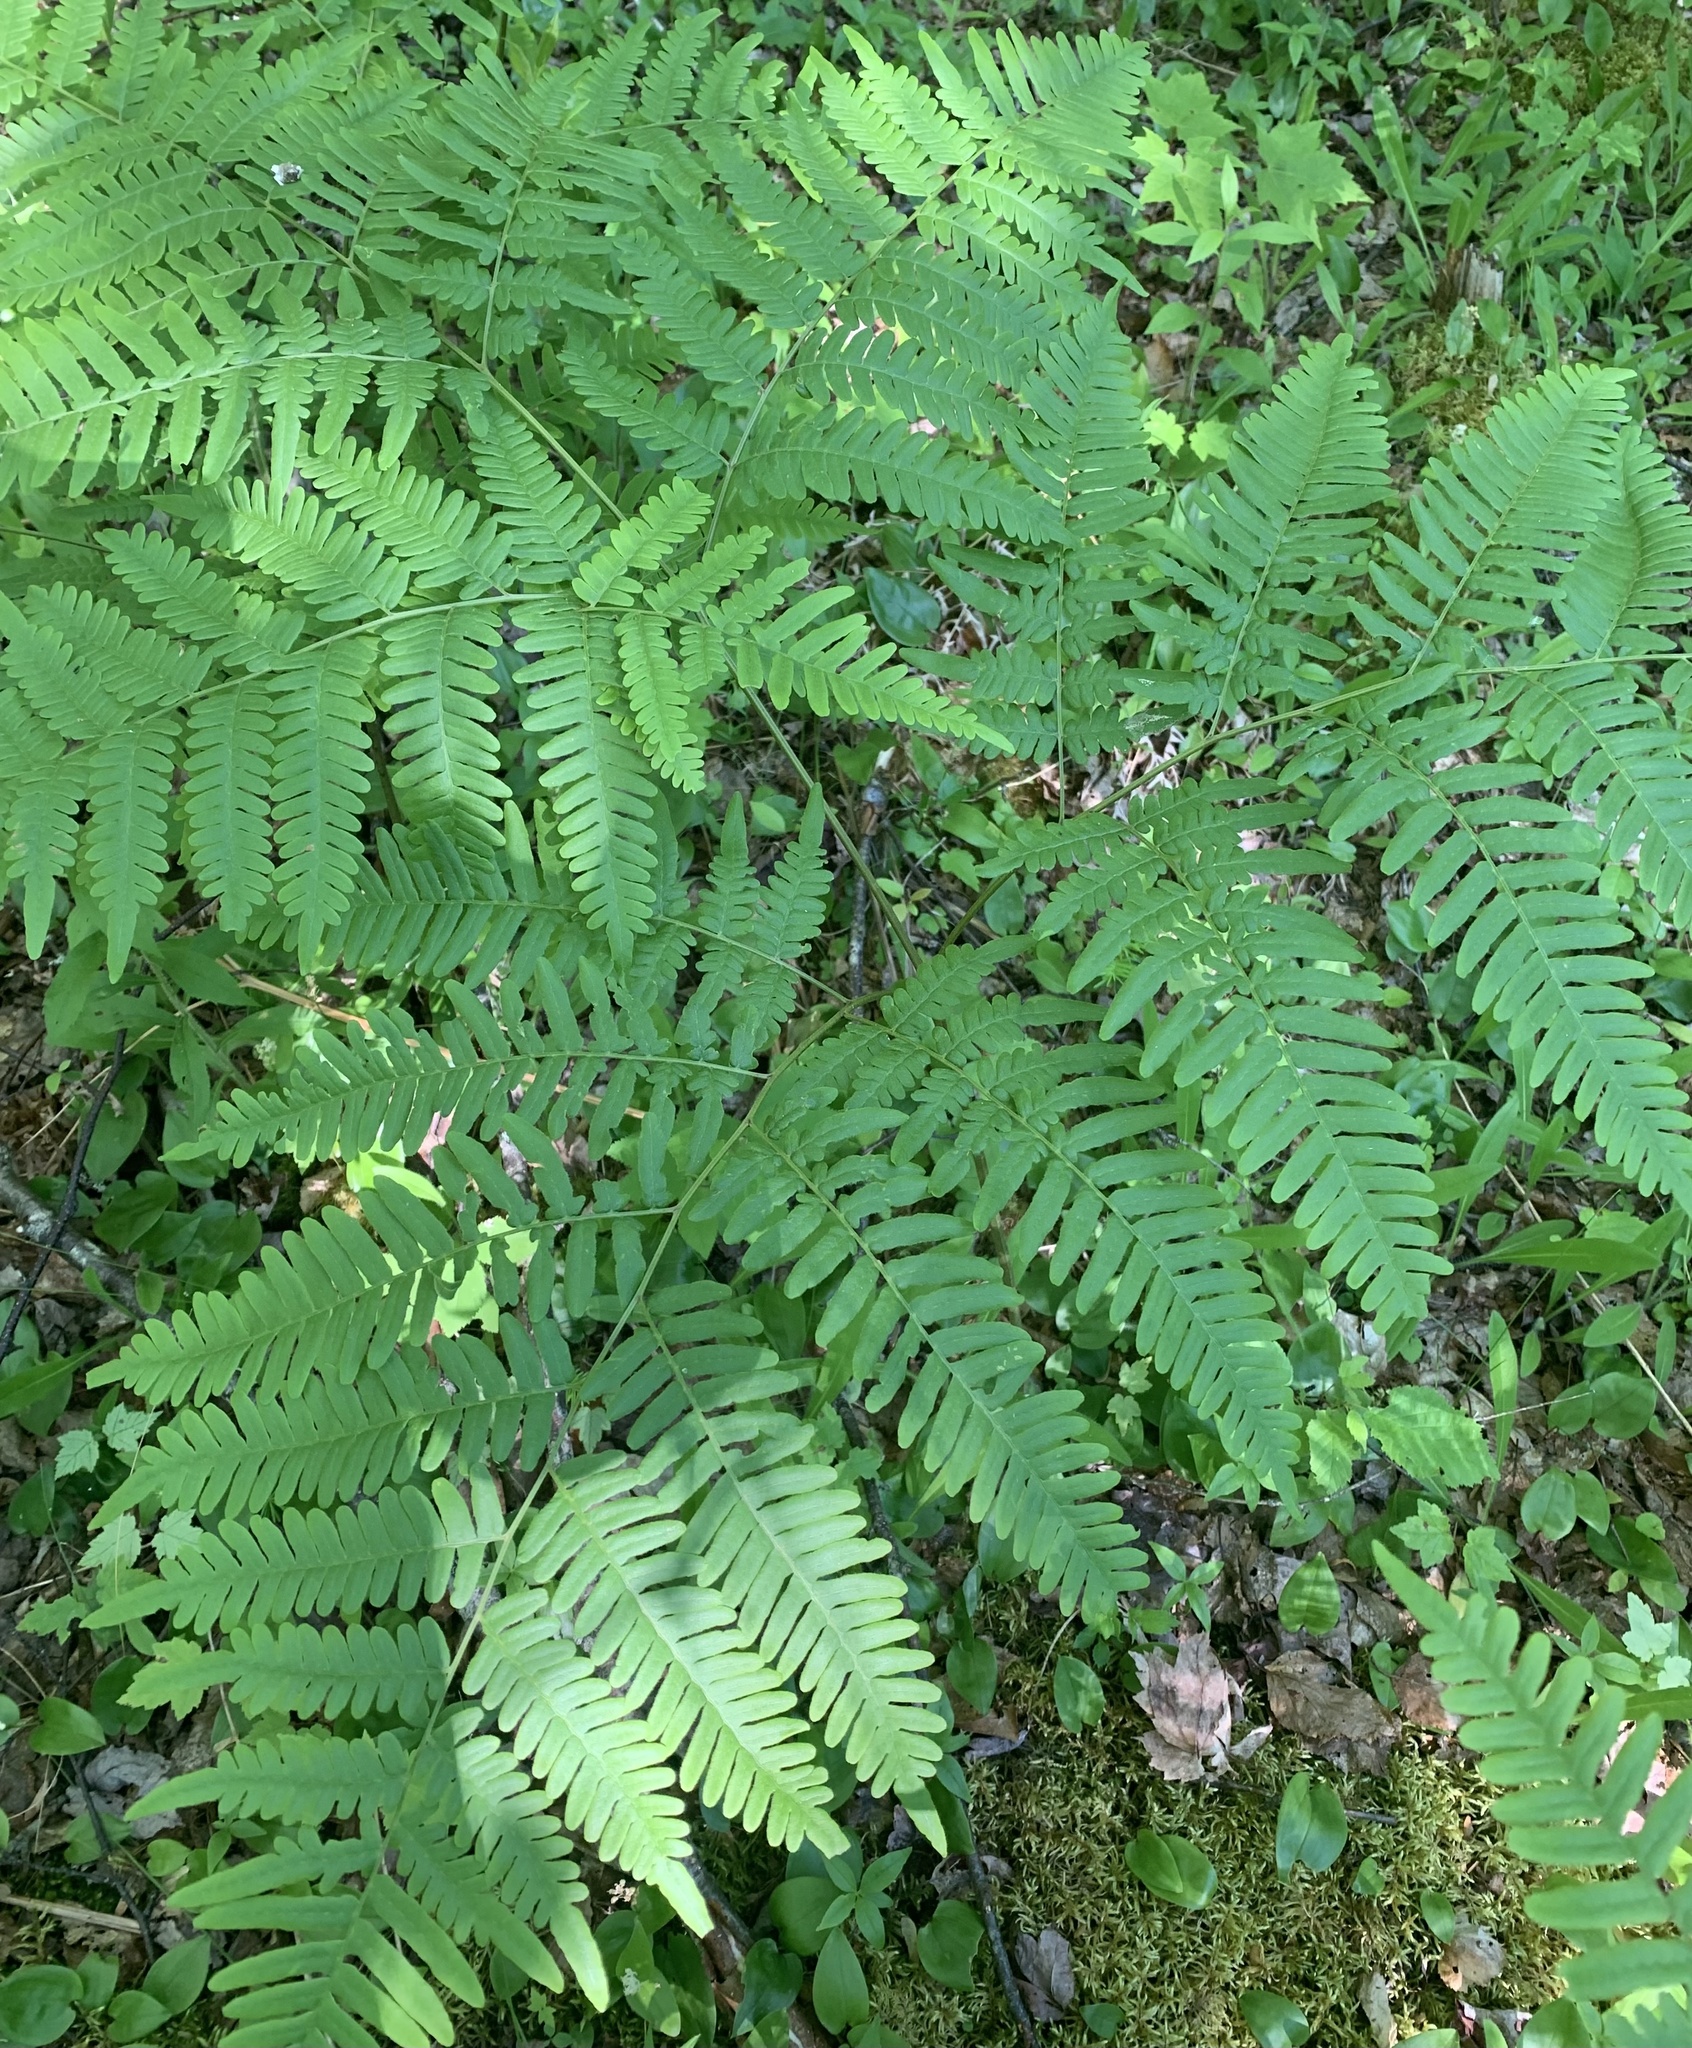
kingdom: Plantae
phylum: Tracheophyta
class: Polypodiopsida
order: Polypodiales
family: Dennstaedtiaceae
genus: Pteridium
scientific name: Pteridium aquilinum
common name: Bracken
